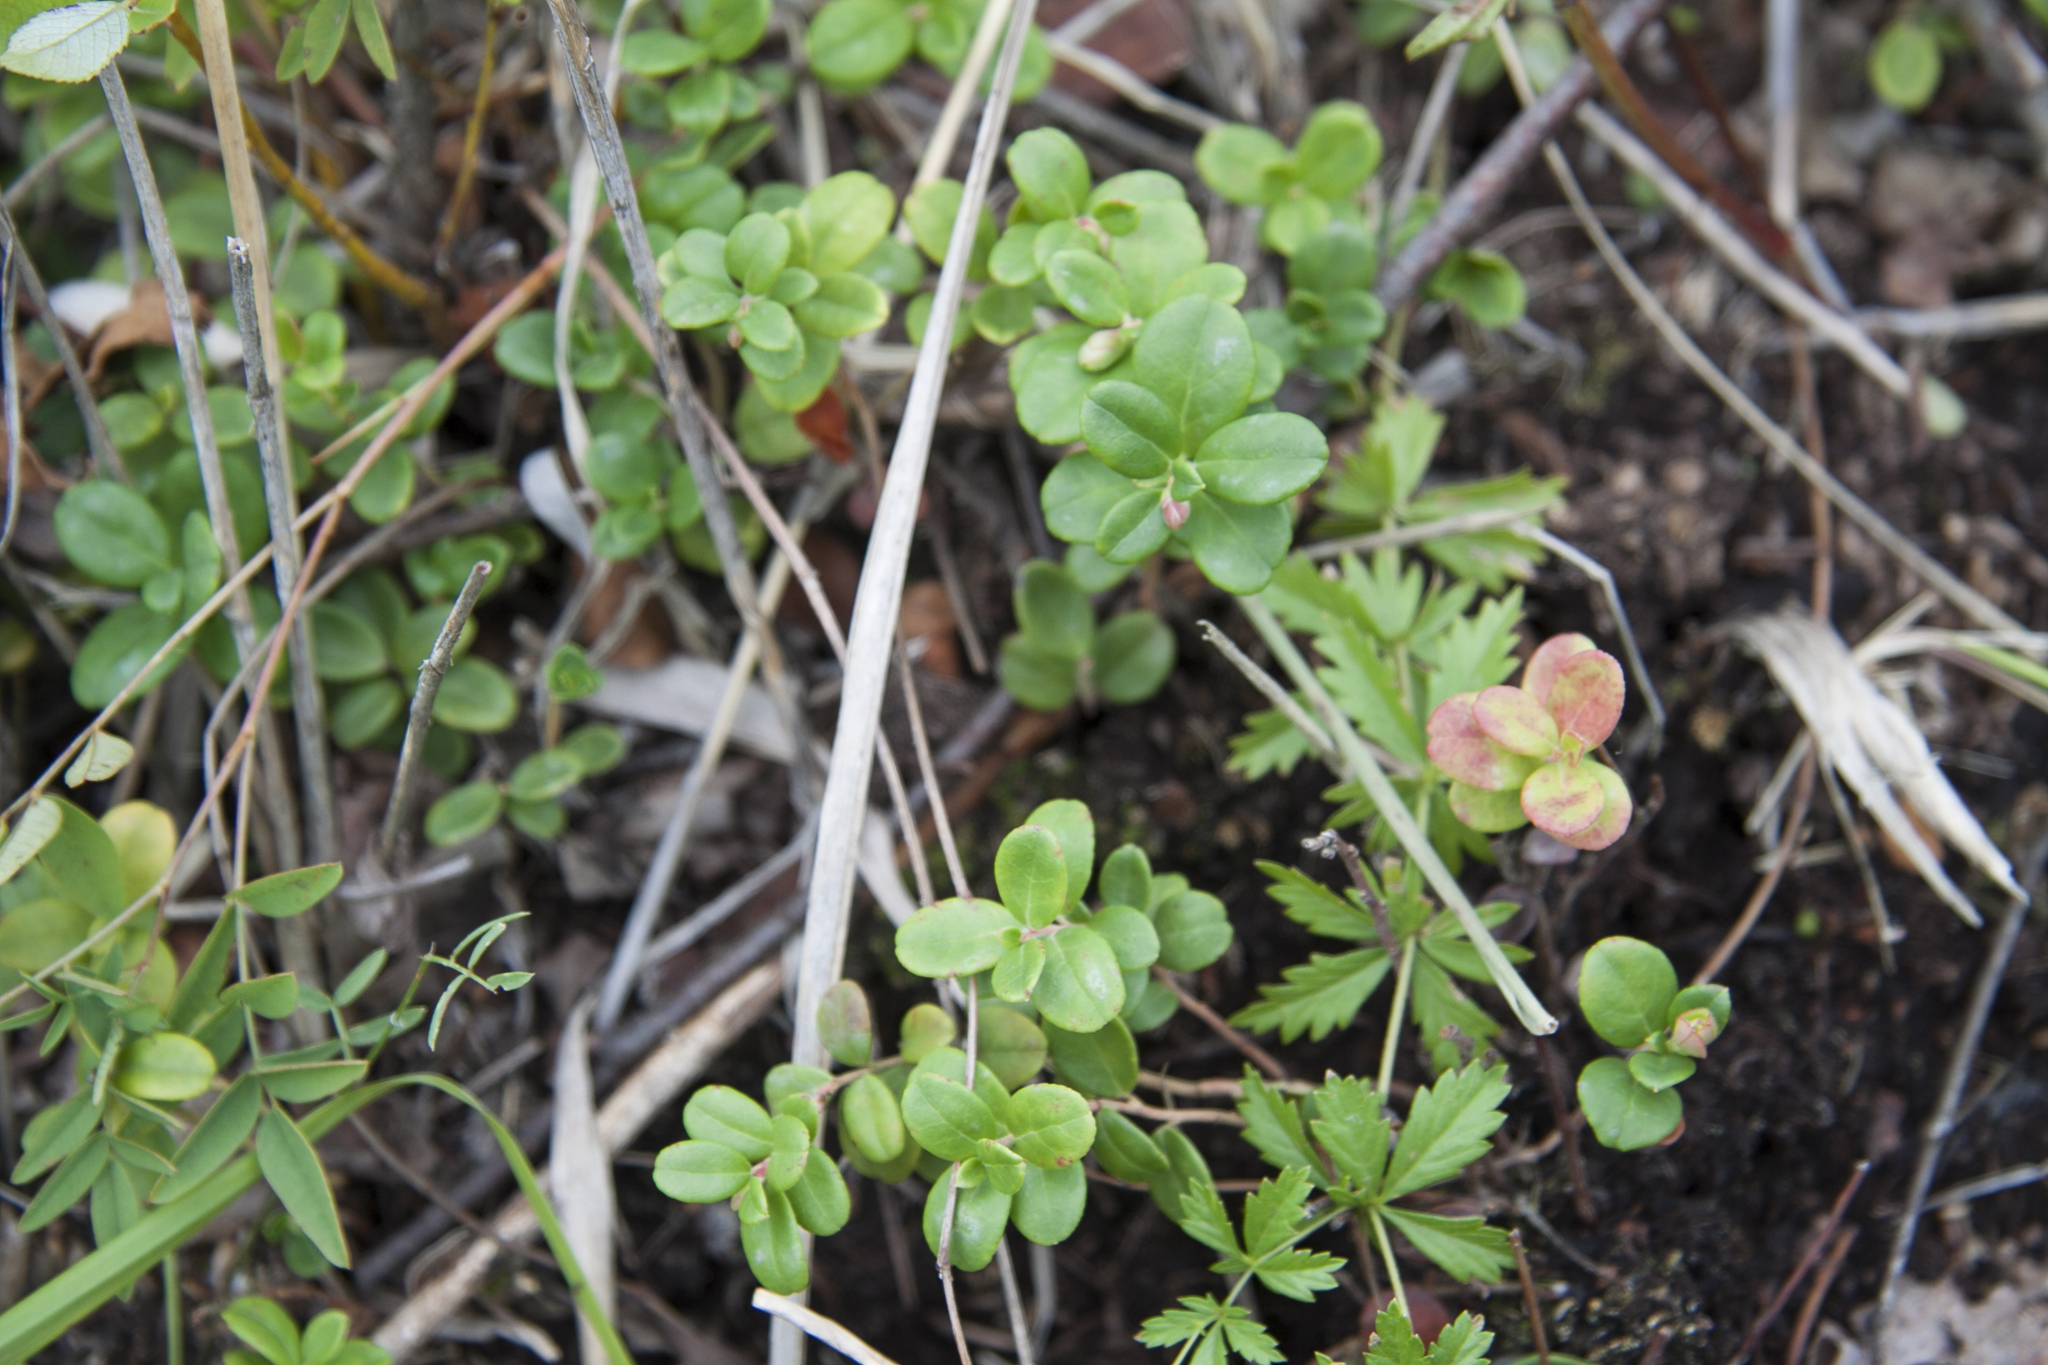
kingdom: Plantae
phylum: Tracheophyta
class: Magnoliopsida
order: Ericales
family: Ericaceae
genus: Vaccinium
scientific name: Vaccinium vitis-idaea
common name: Cowberry
